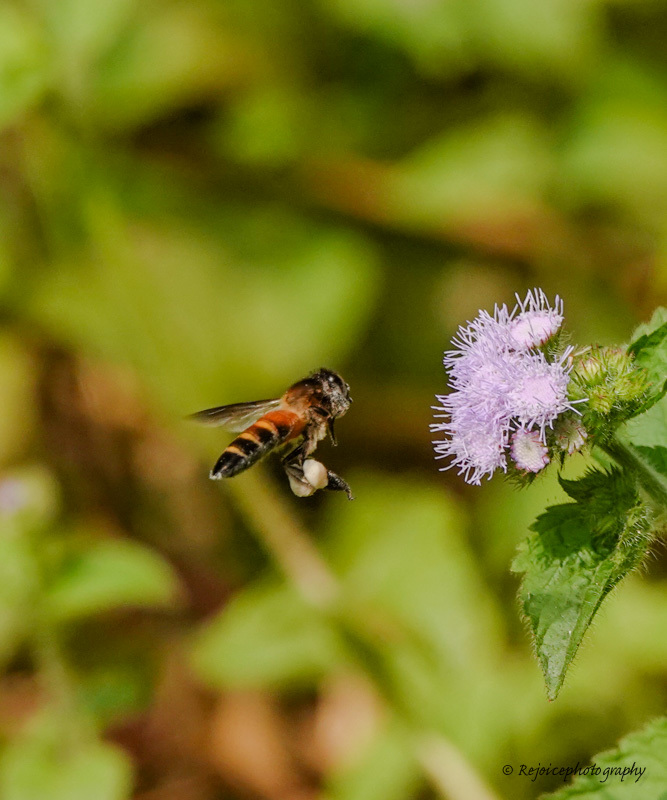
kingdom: Animalia
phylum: Arthropoda
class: Insecta
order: Hymenoptera
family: Apidae
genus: Apis
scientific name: Apis dorsata
